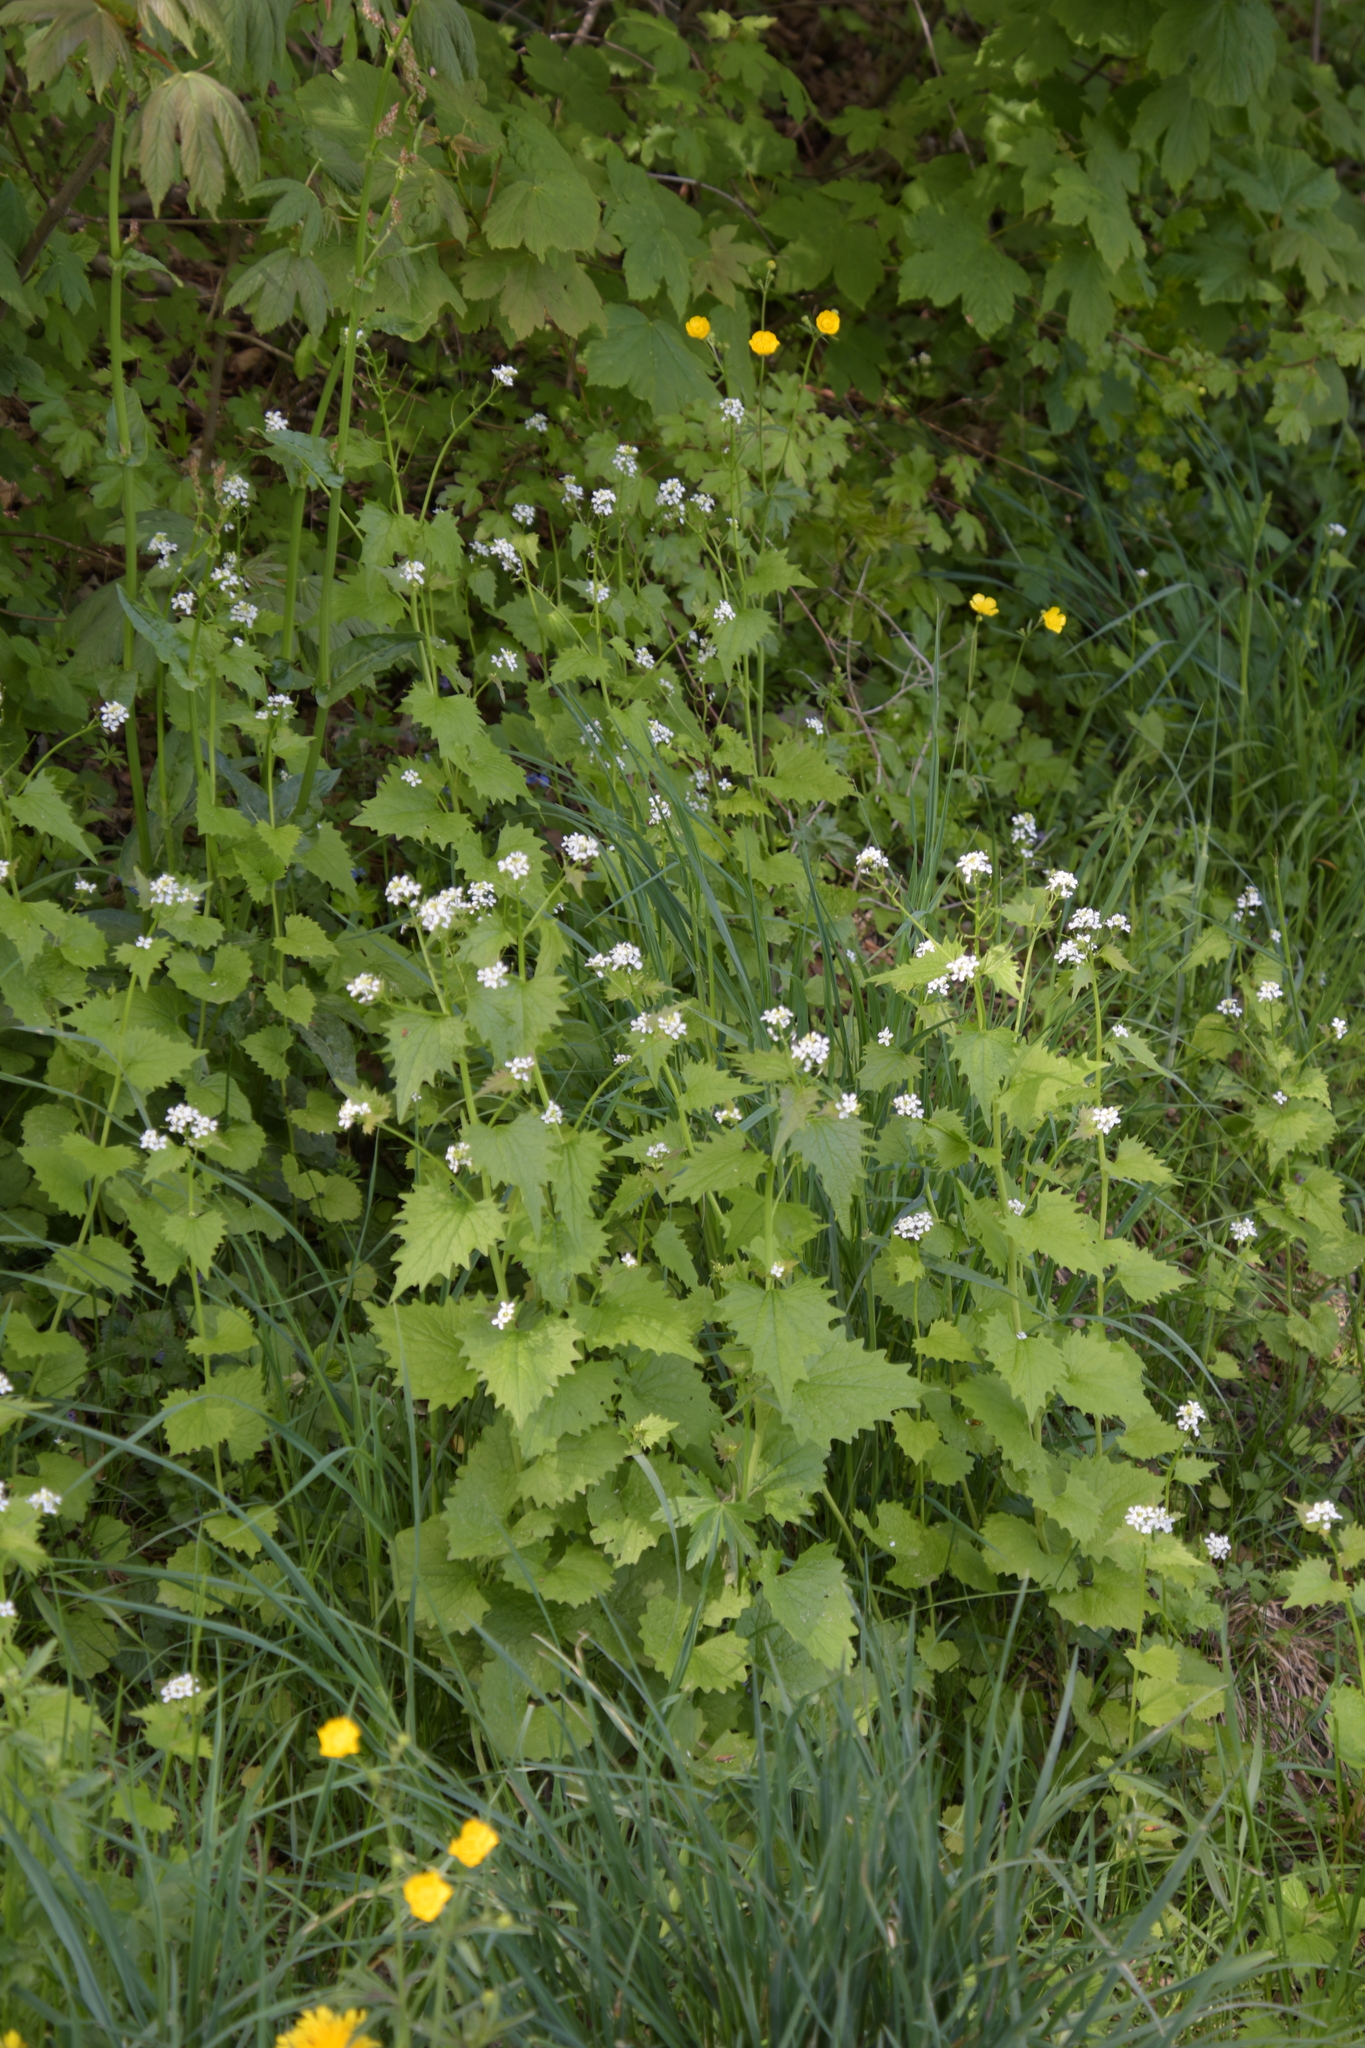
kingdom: Plantae
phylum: Tracheophyta
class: Magnoliopsida
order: Brassicales
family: Brassicaceae
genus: Alliaria
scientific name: Alliaria petiolata
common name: Garlic mustard
